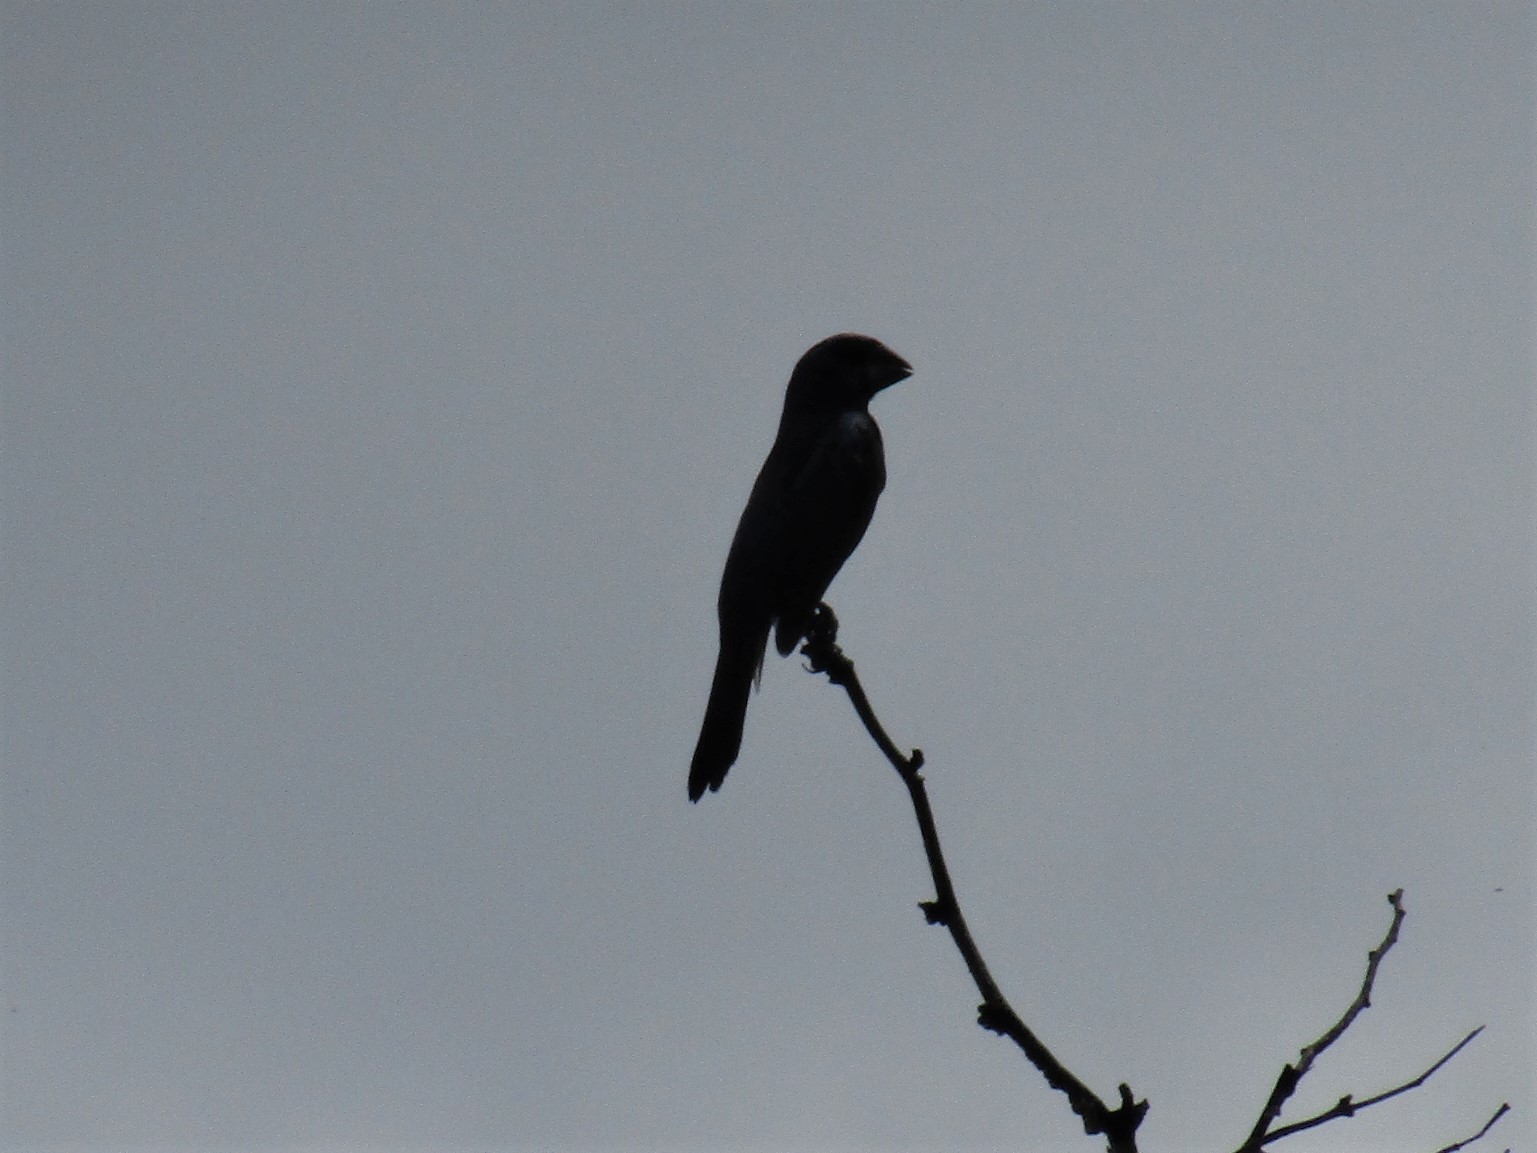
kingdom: Animalia
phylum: Chordata
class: Aves
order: Passeriformes
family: Cardinalidae
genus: Cyanoloxia
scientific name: Cyanoloxia brissonii
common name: Ultramarine grosbeak
